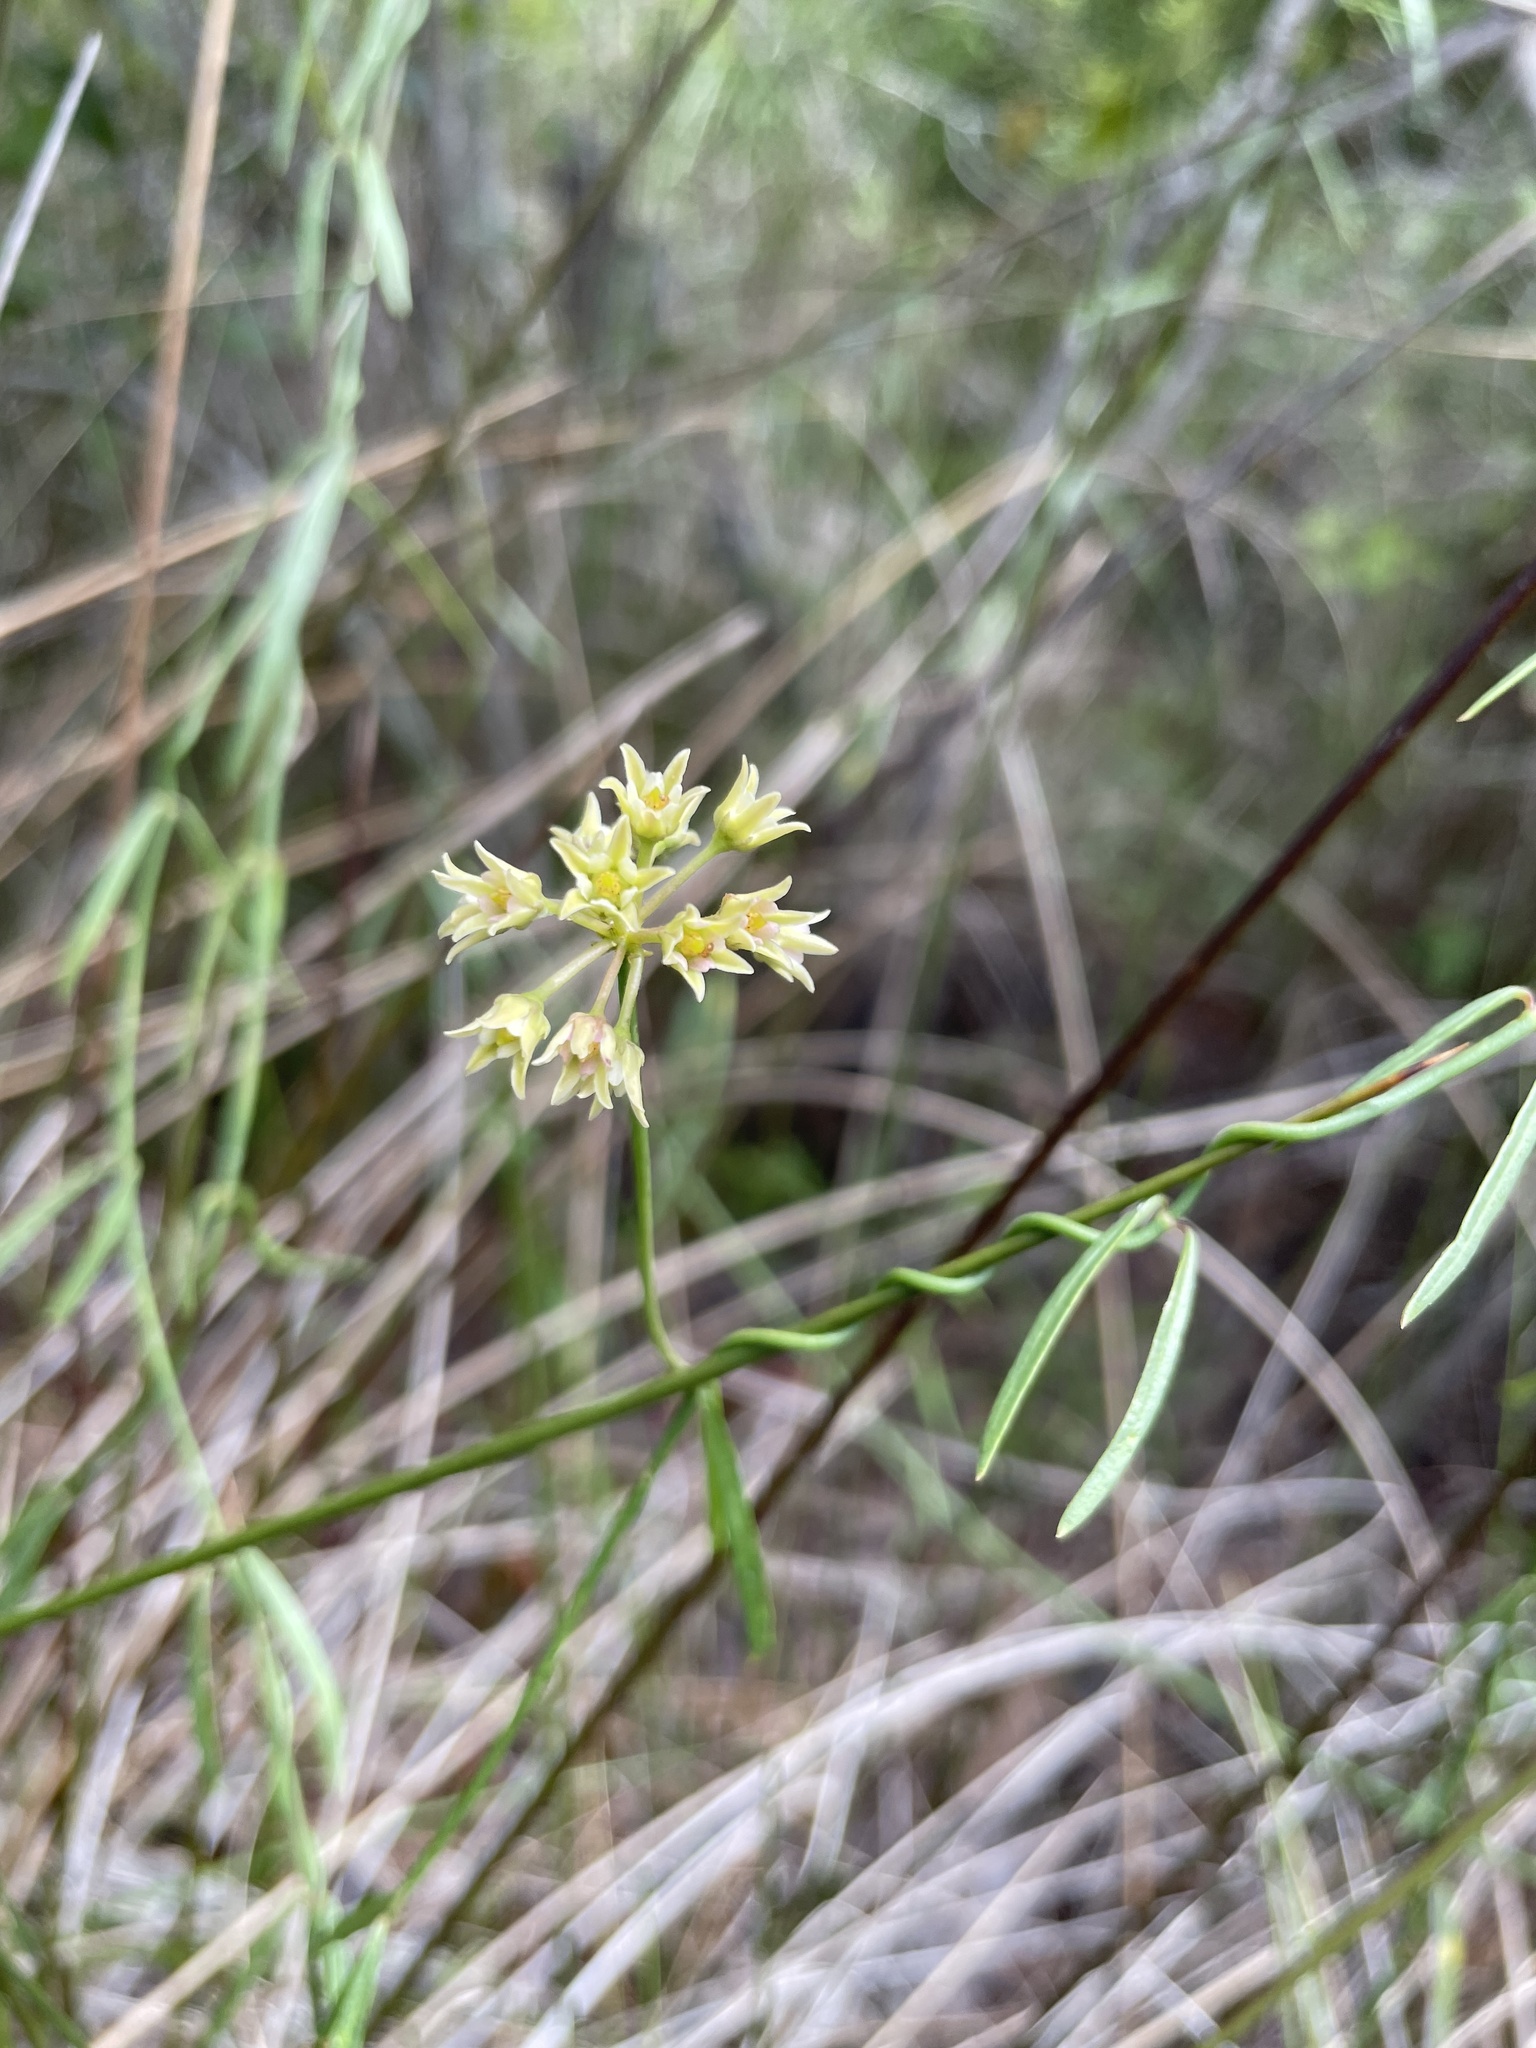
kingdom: Plantae
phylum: Tracheophyta
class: Magnoliopsida
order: Gentianales
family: Apocynaceae
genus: Pattalias
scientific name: Pattalias
